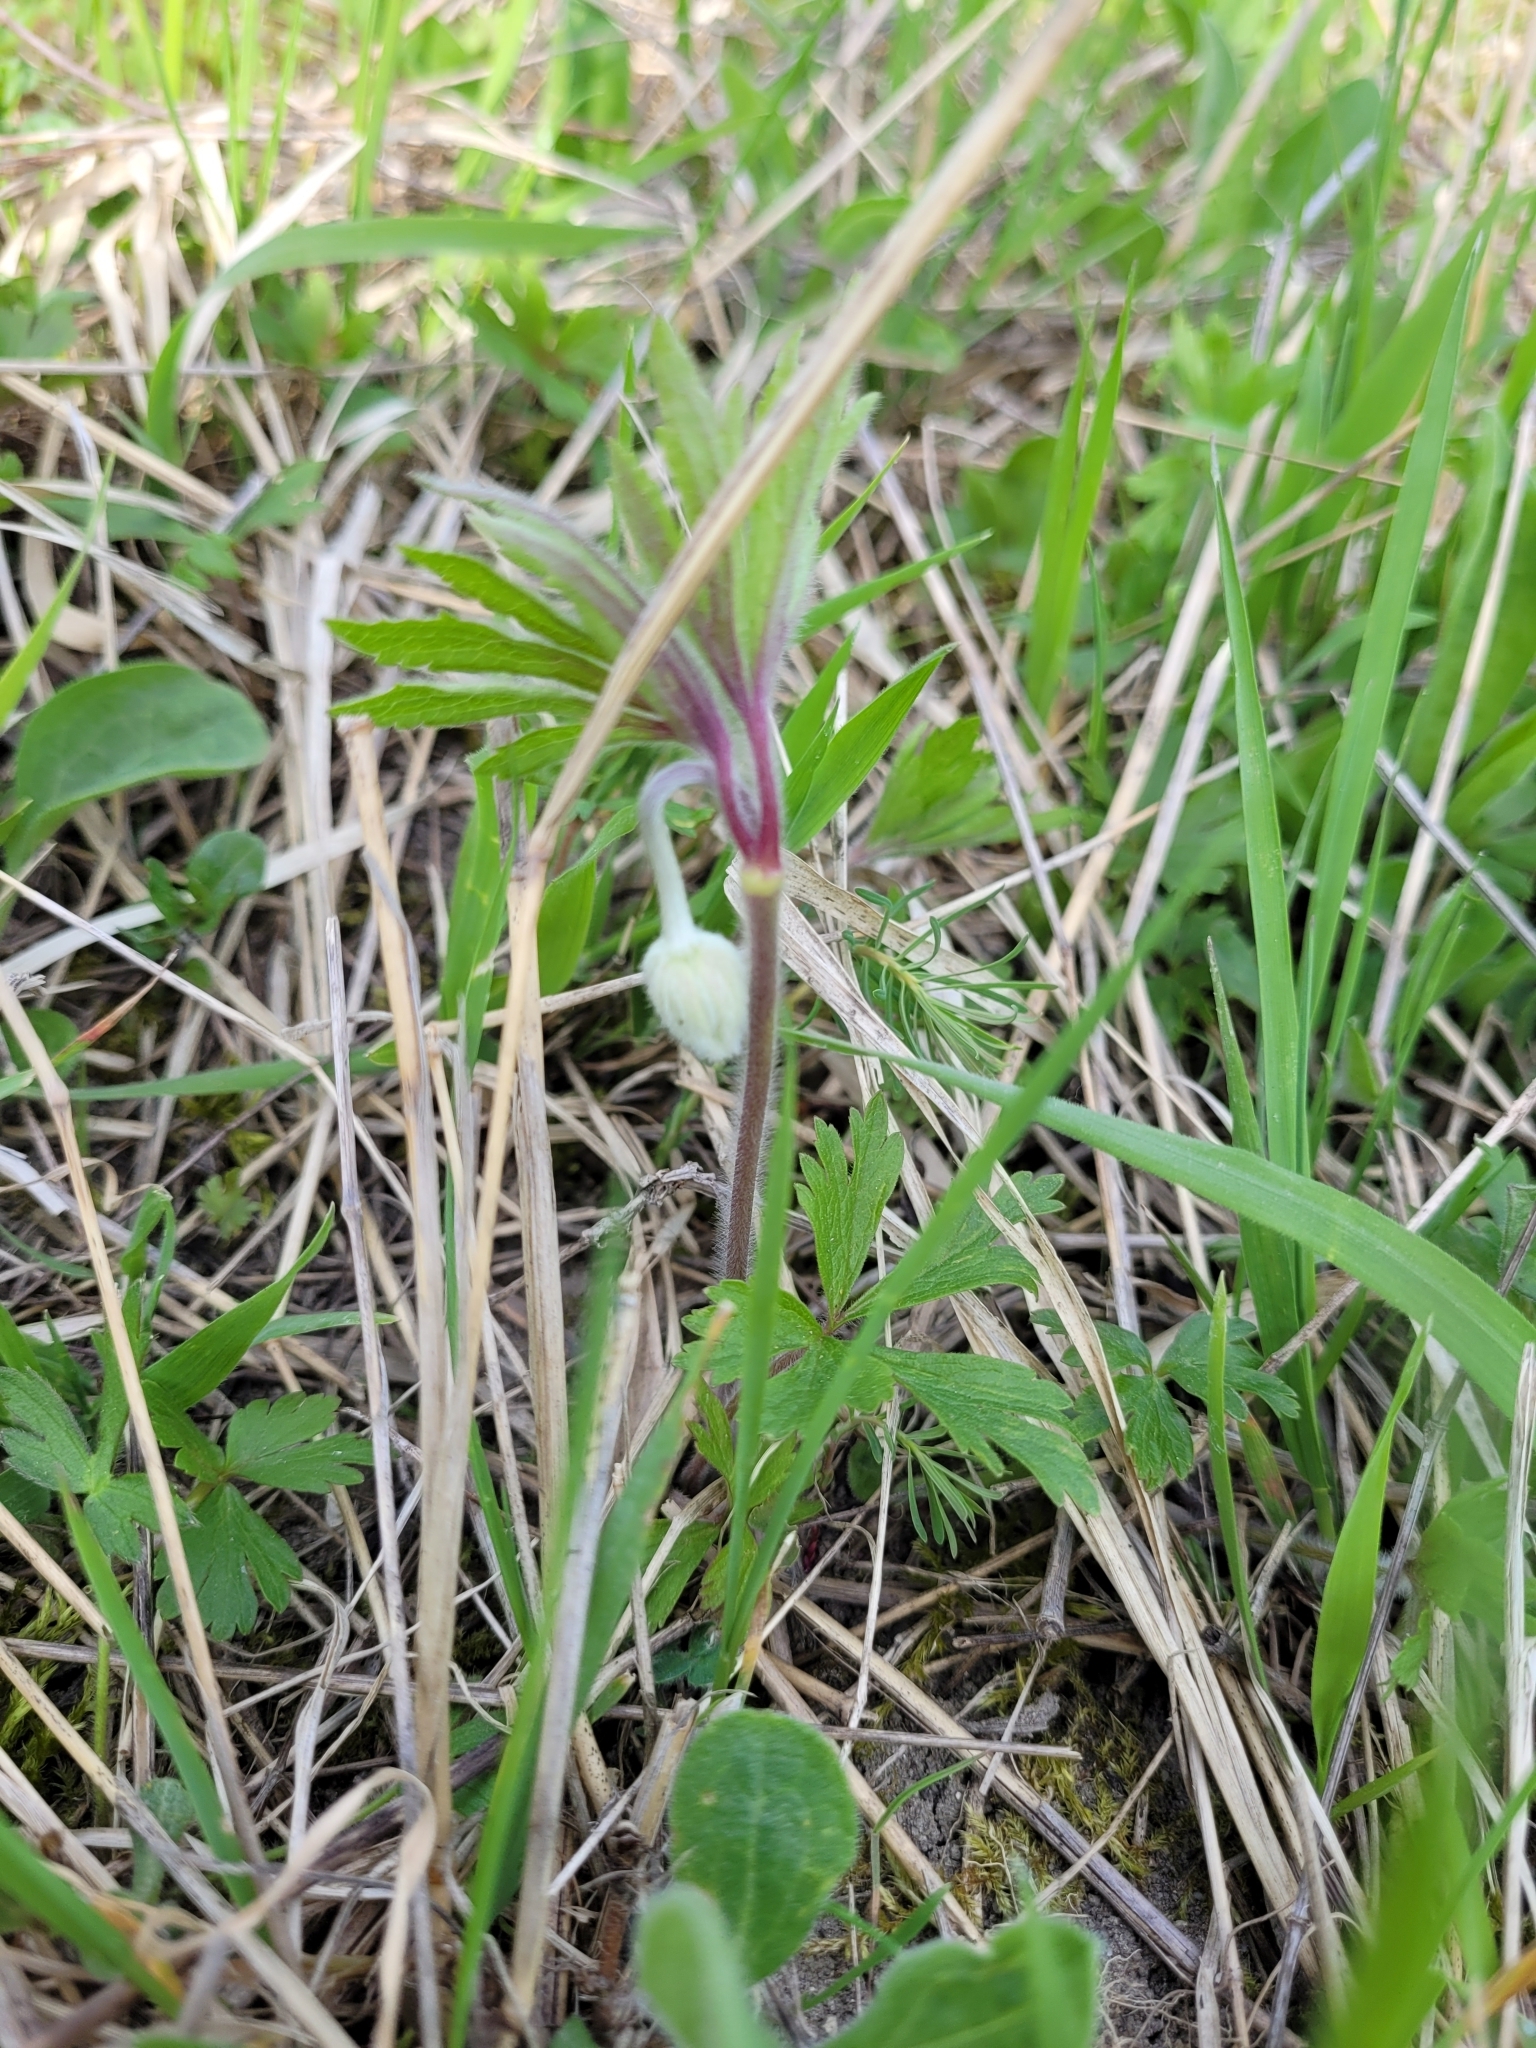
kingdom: Plantae
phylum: Tracheophyta
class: Magnoliopsida
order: Ranunculales
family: Ranunculaceae
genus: Anemone
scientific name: Anemone sylvestris
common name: Snowdrop anemone
